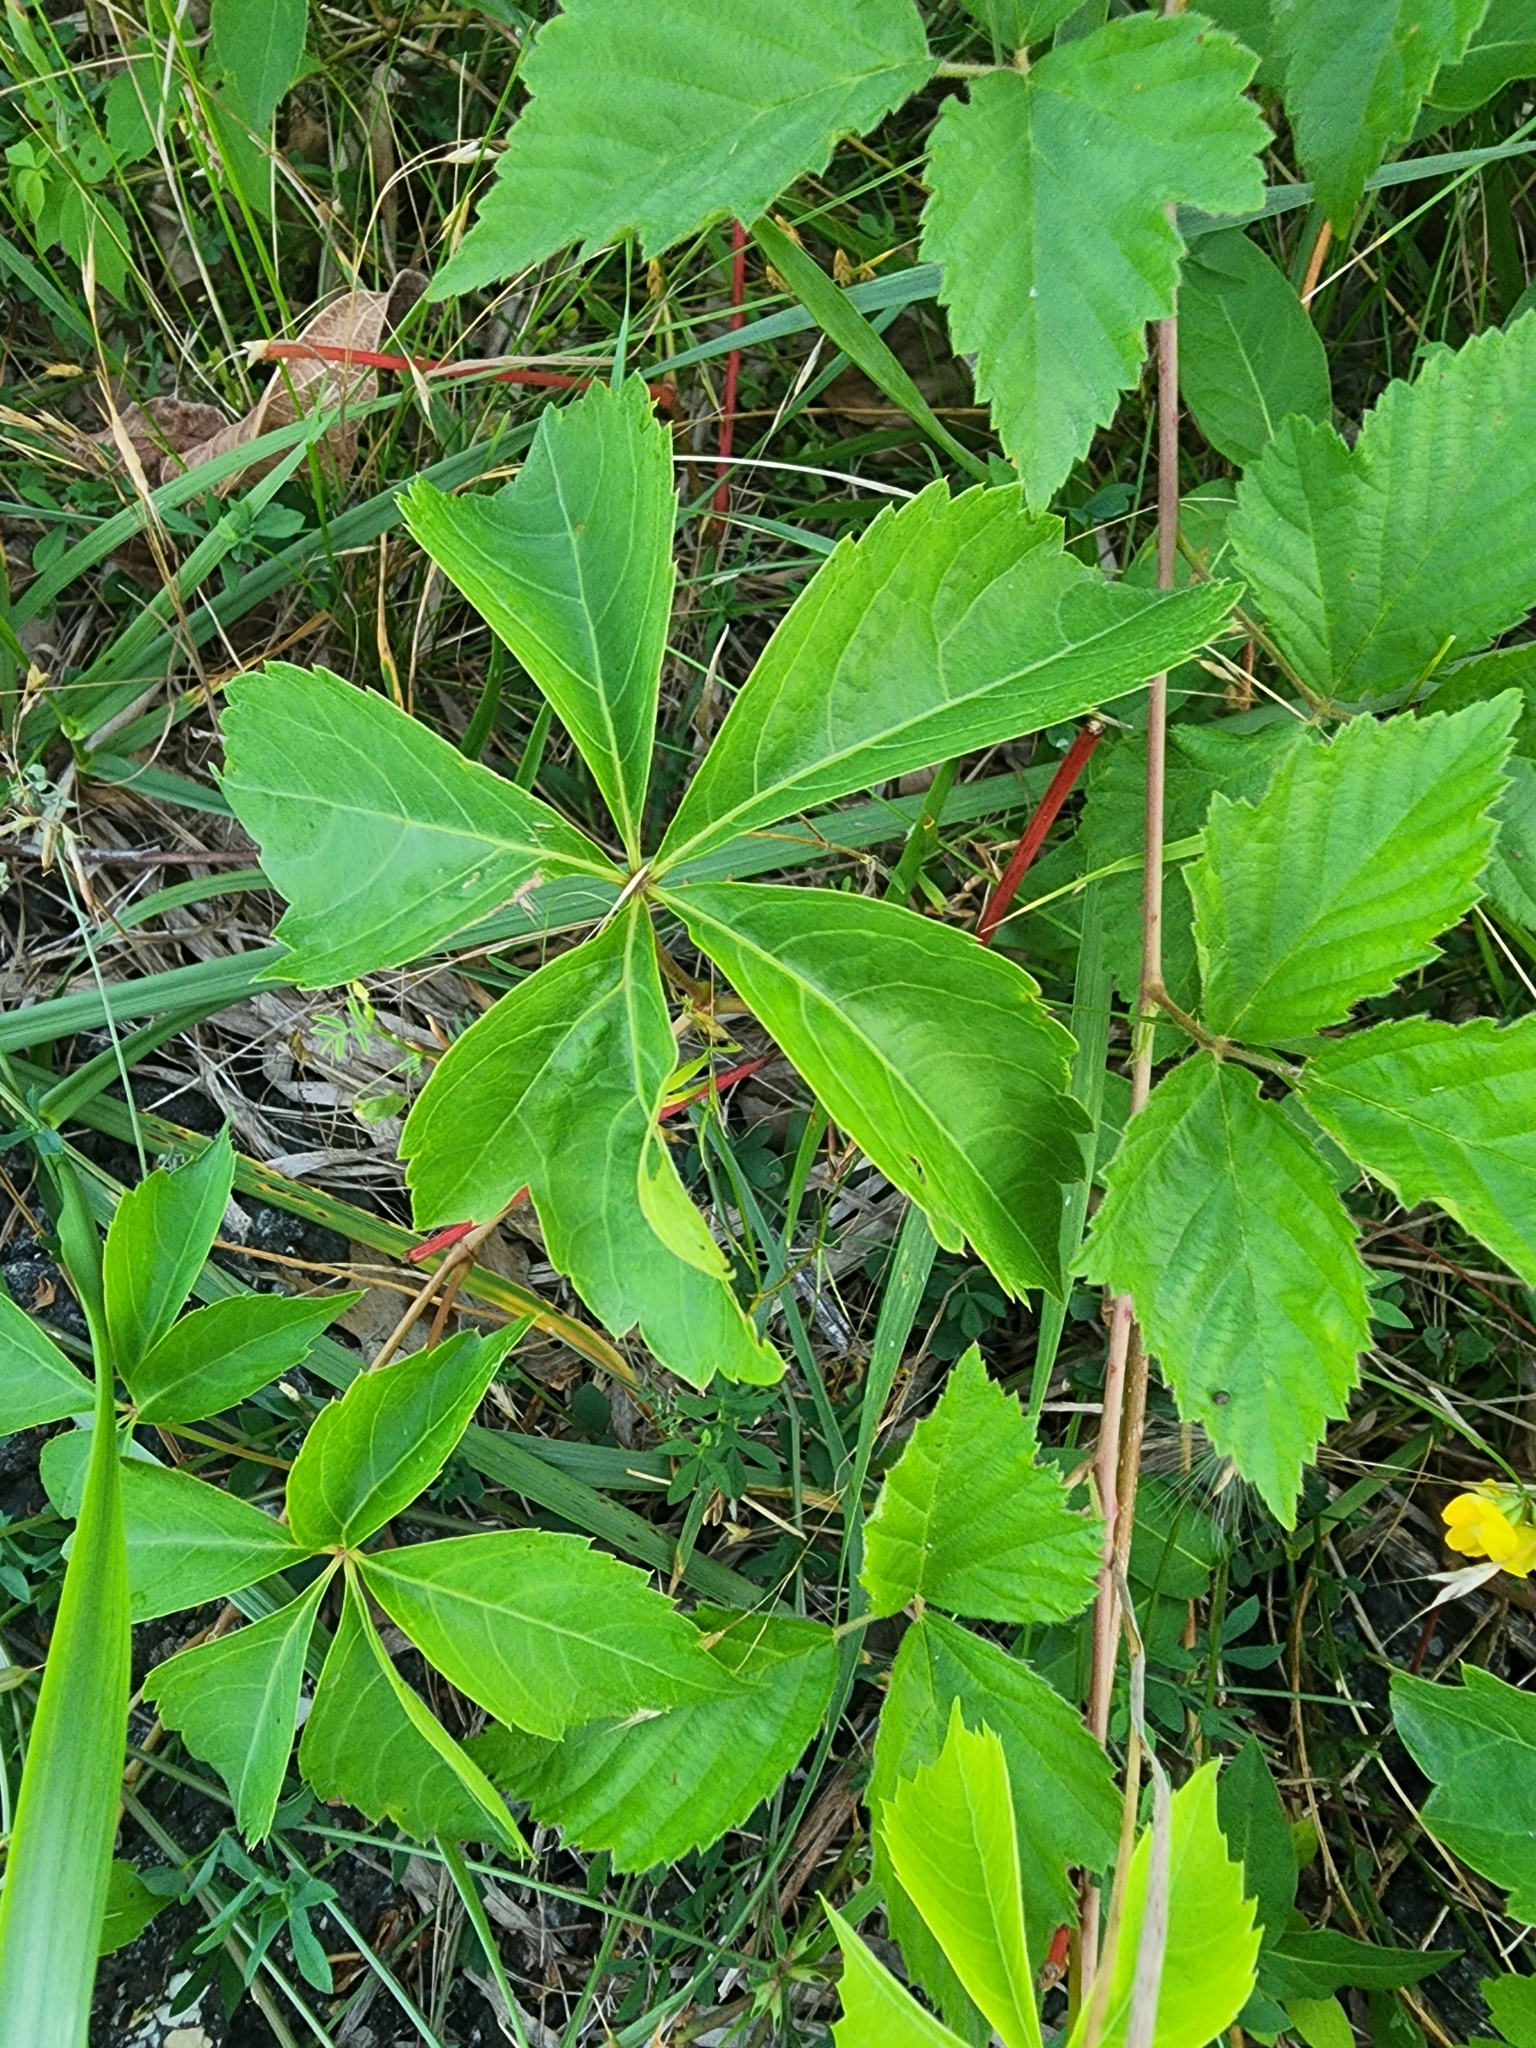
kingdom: Plantae
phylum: Tracheophyta
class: Magnoliopsida
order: Vitales
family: Vitaceae
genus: Parthenocissus
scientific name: Parthenocissus quinquefolia
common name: Virginia-creeper
